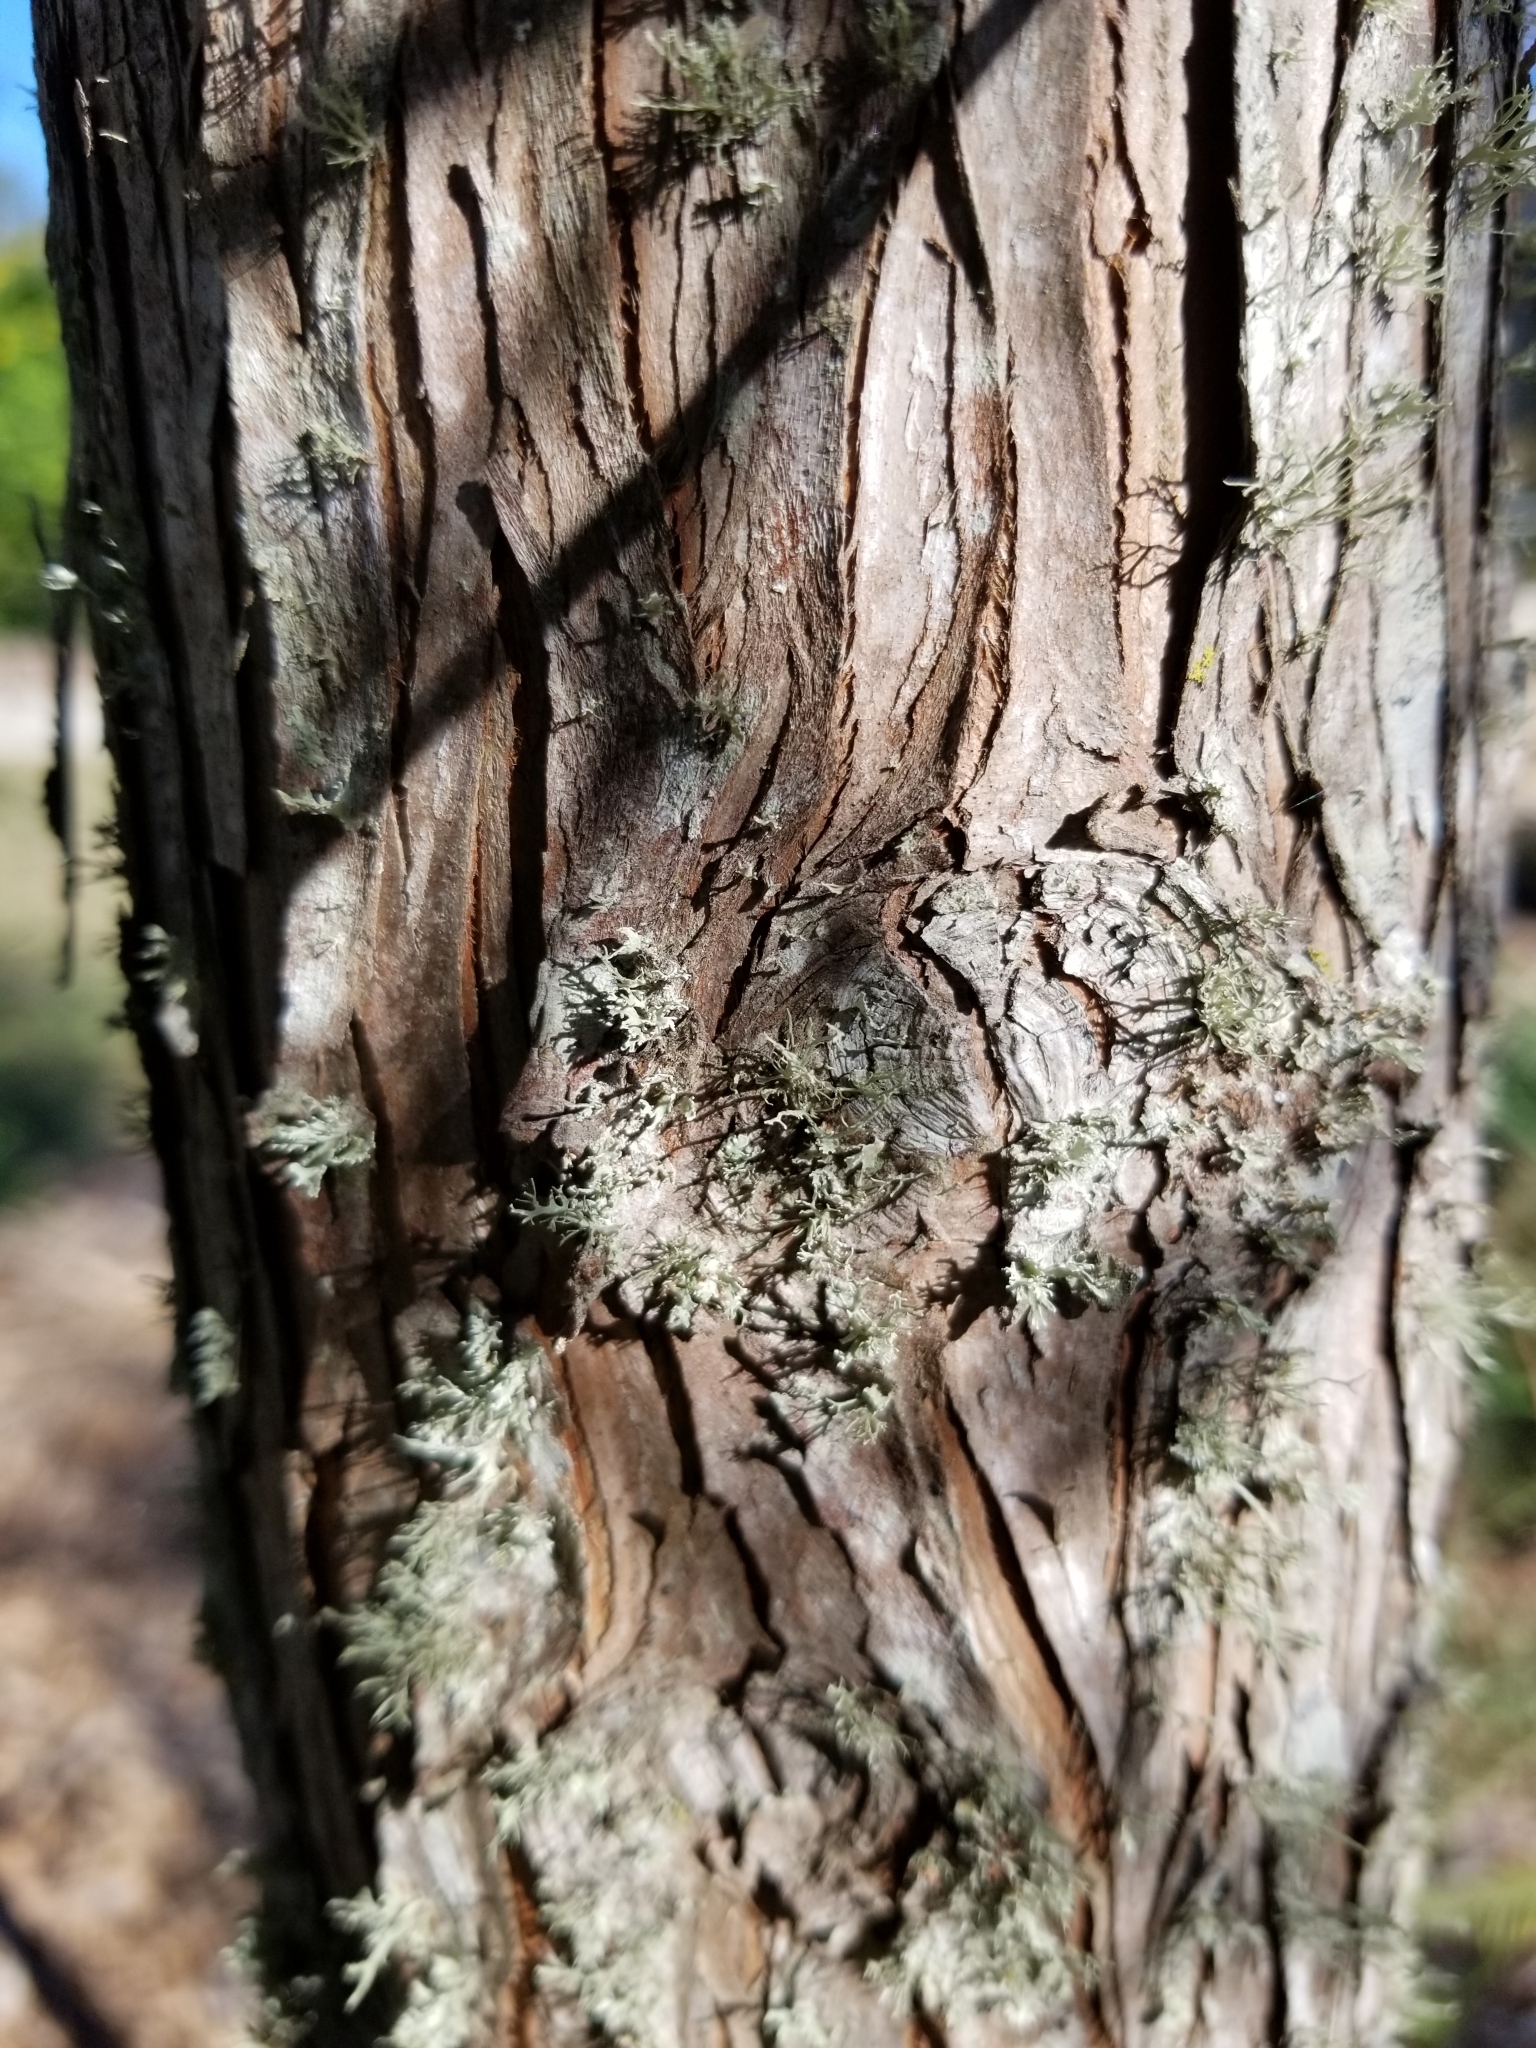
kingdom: Plantae
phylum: Tracheophyta
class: Pinopsida
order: Pinales
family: Cupressaceae
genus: Taxodium
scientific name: Taxodium distichum
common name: Bald cypress
